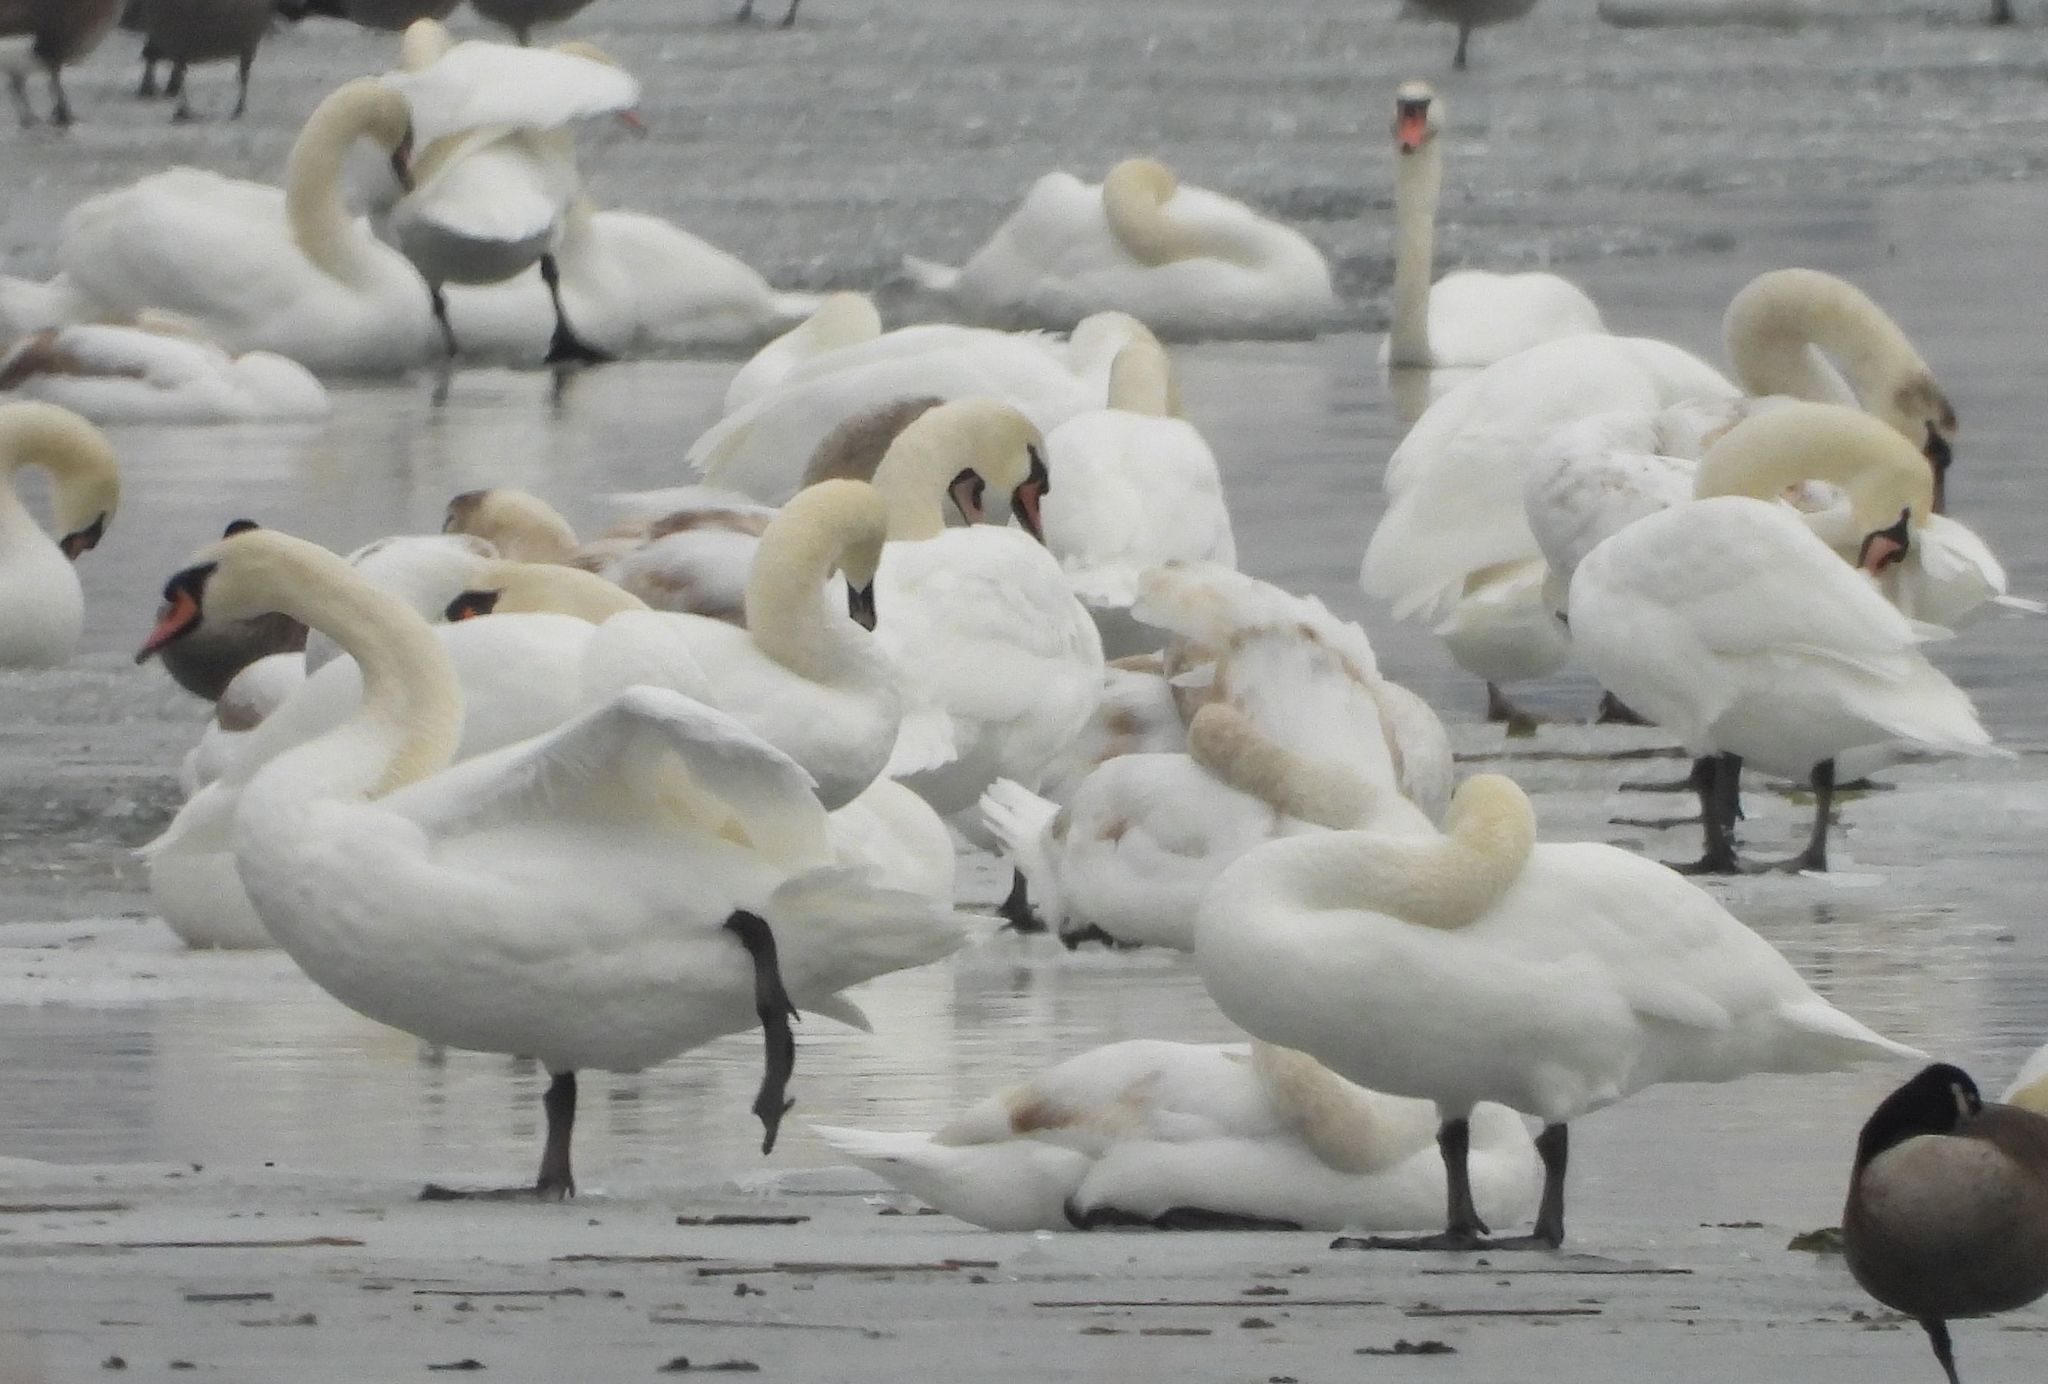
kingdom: Animalia
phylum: Chordata
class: Aves
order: Anseriformes
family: Anatidae
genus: Cygnus
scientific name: Cygnus olor
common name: Mute swan
